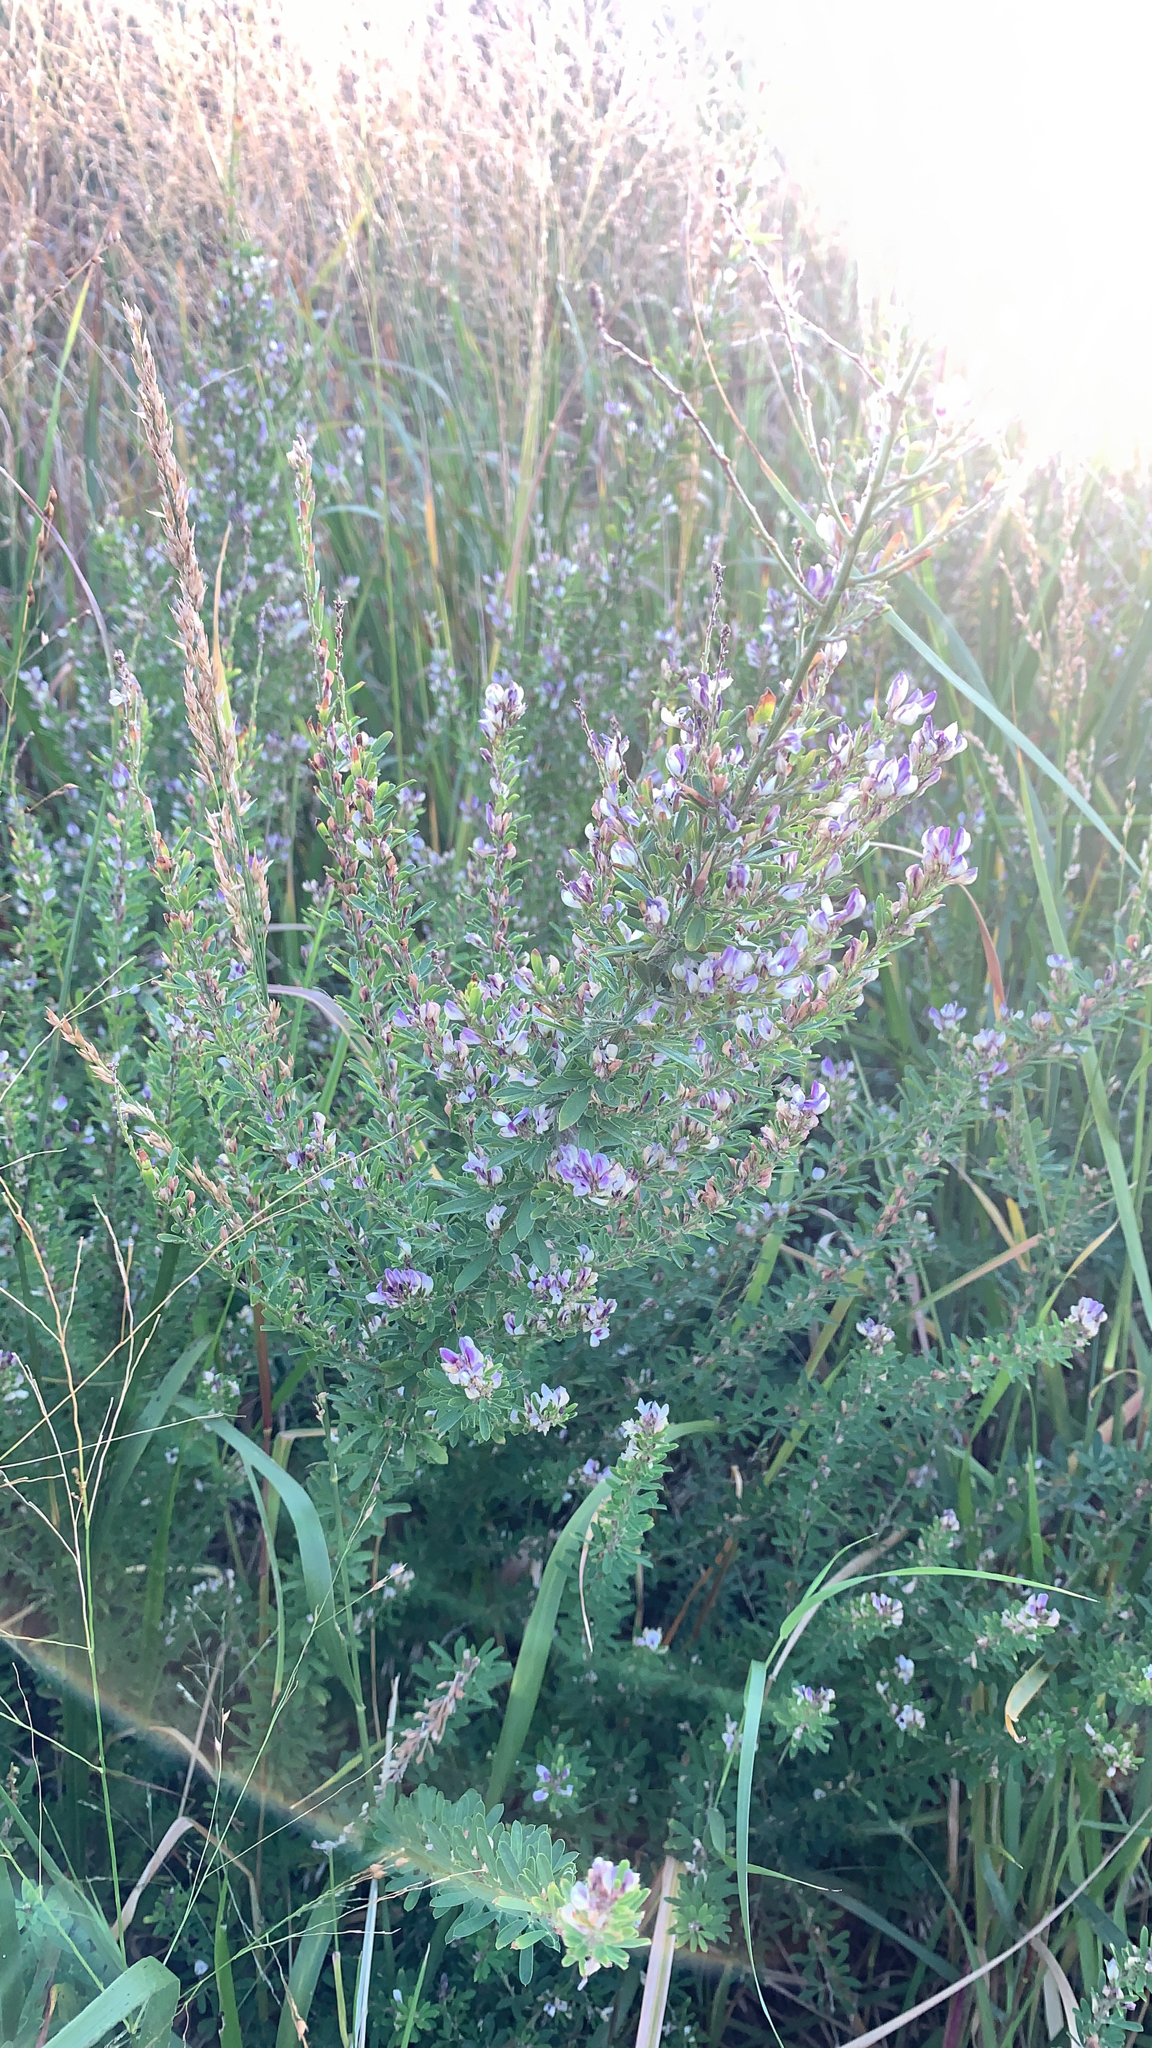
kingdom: Plantae
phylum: Tracheophyta
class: Magnoliopsida
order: Fabales
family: Fabaceae
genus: Lespedeza
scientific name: Lespedeza cuneata
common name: Chinese bush-clover
